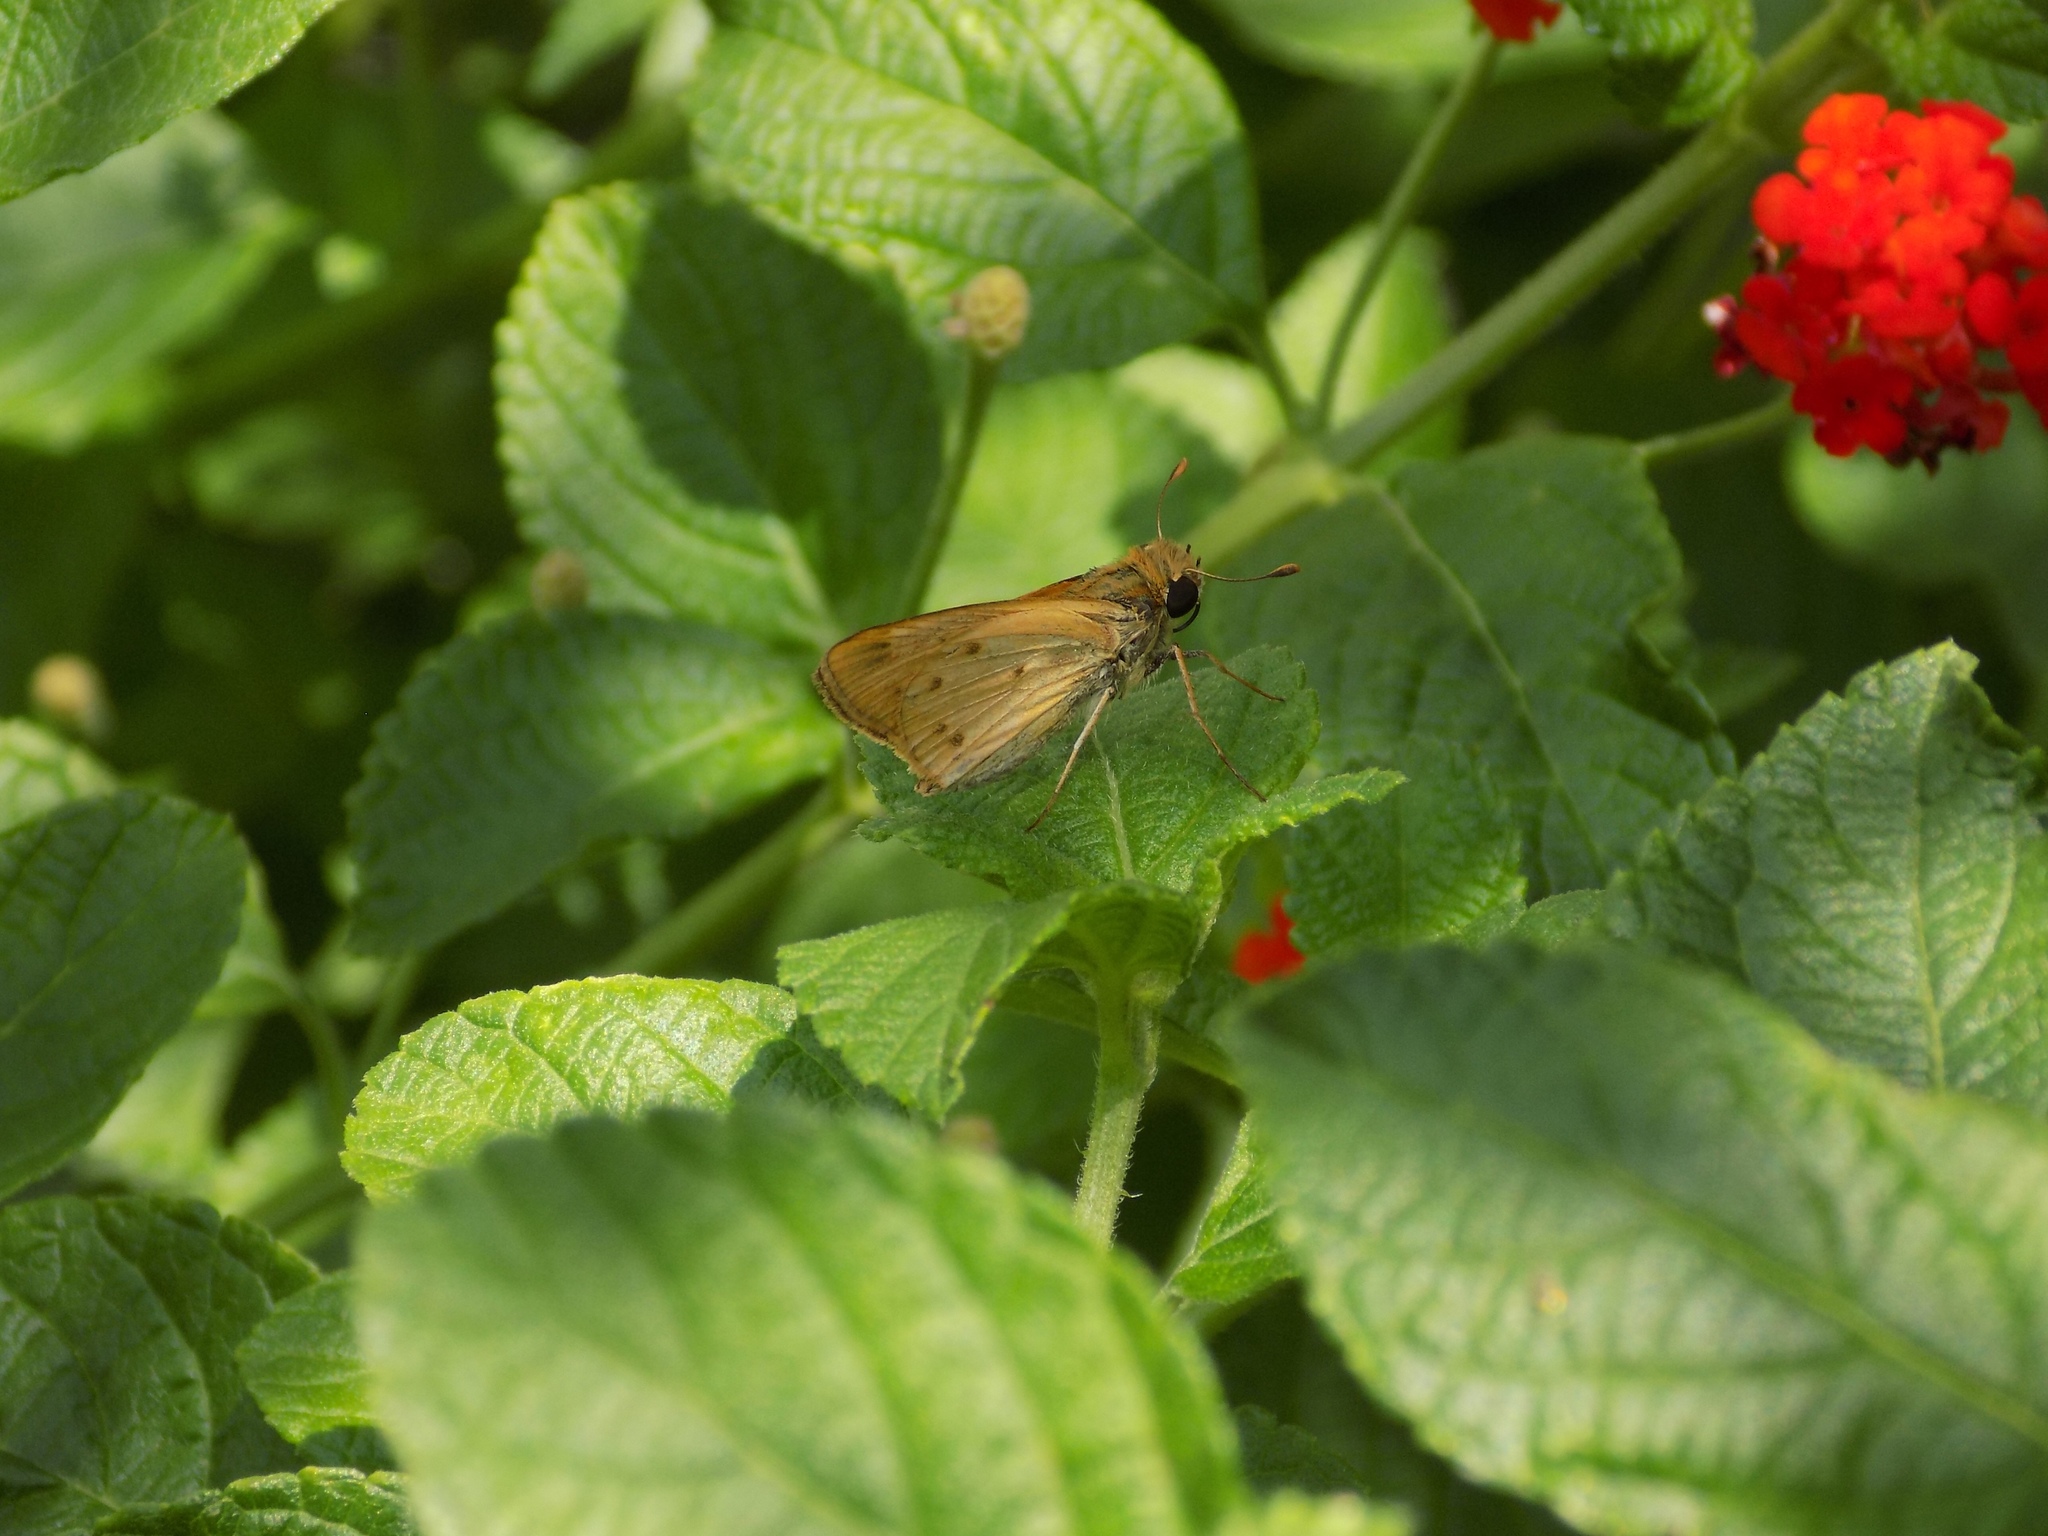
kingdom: Animalia
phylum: Arthropoda
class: Insecta
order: Lepidoptera
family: Hesperiidae
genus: Hylephila
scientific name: Hylephila phyleus
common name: Fiery skipper
